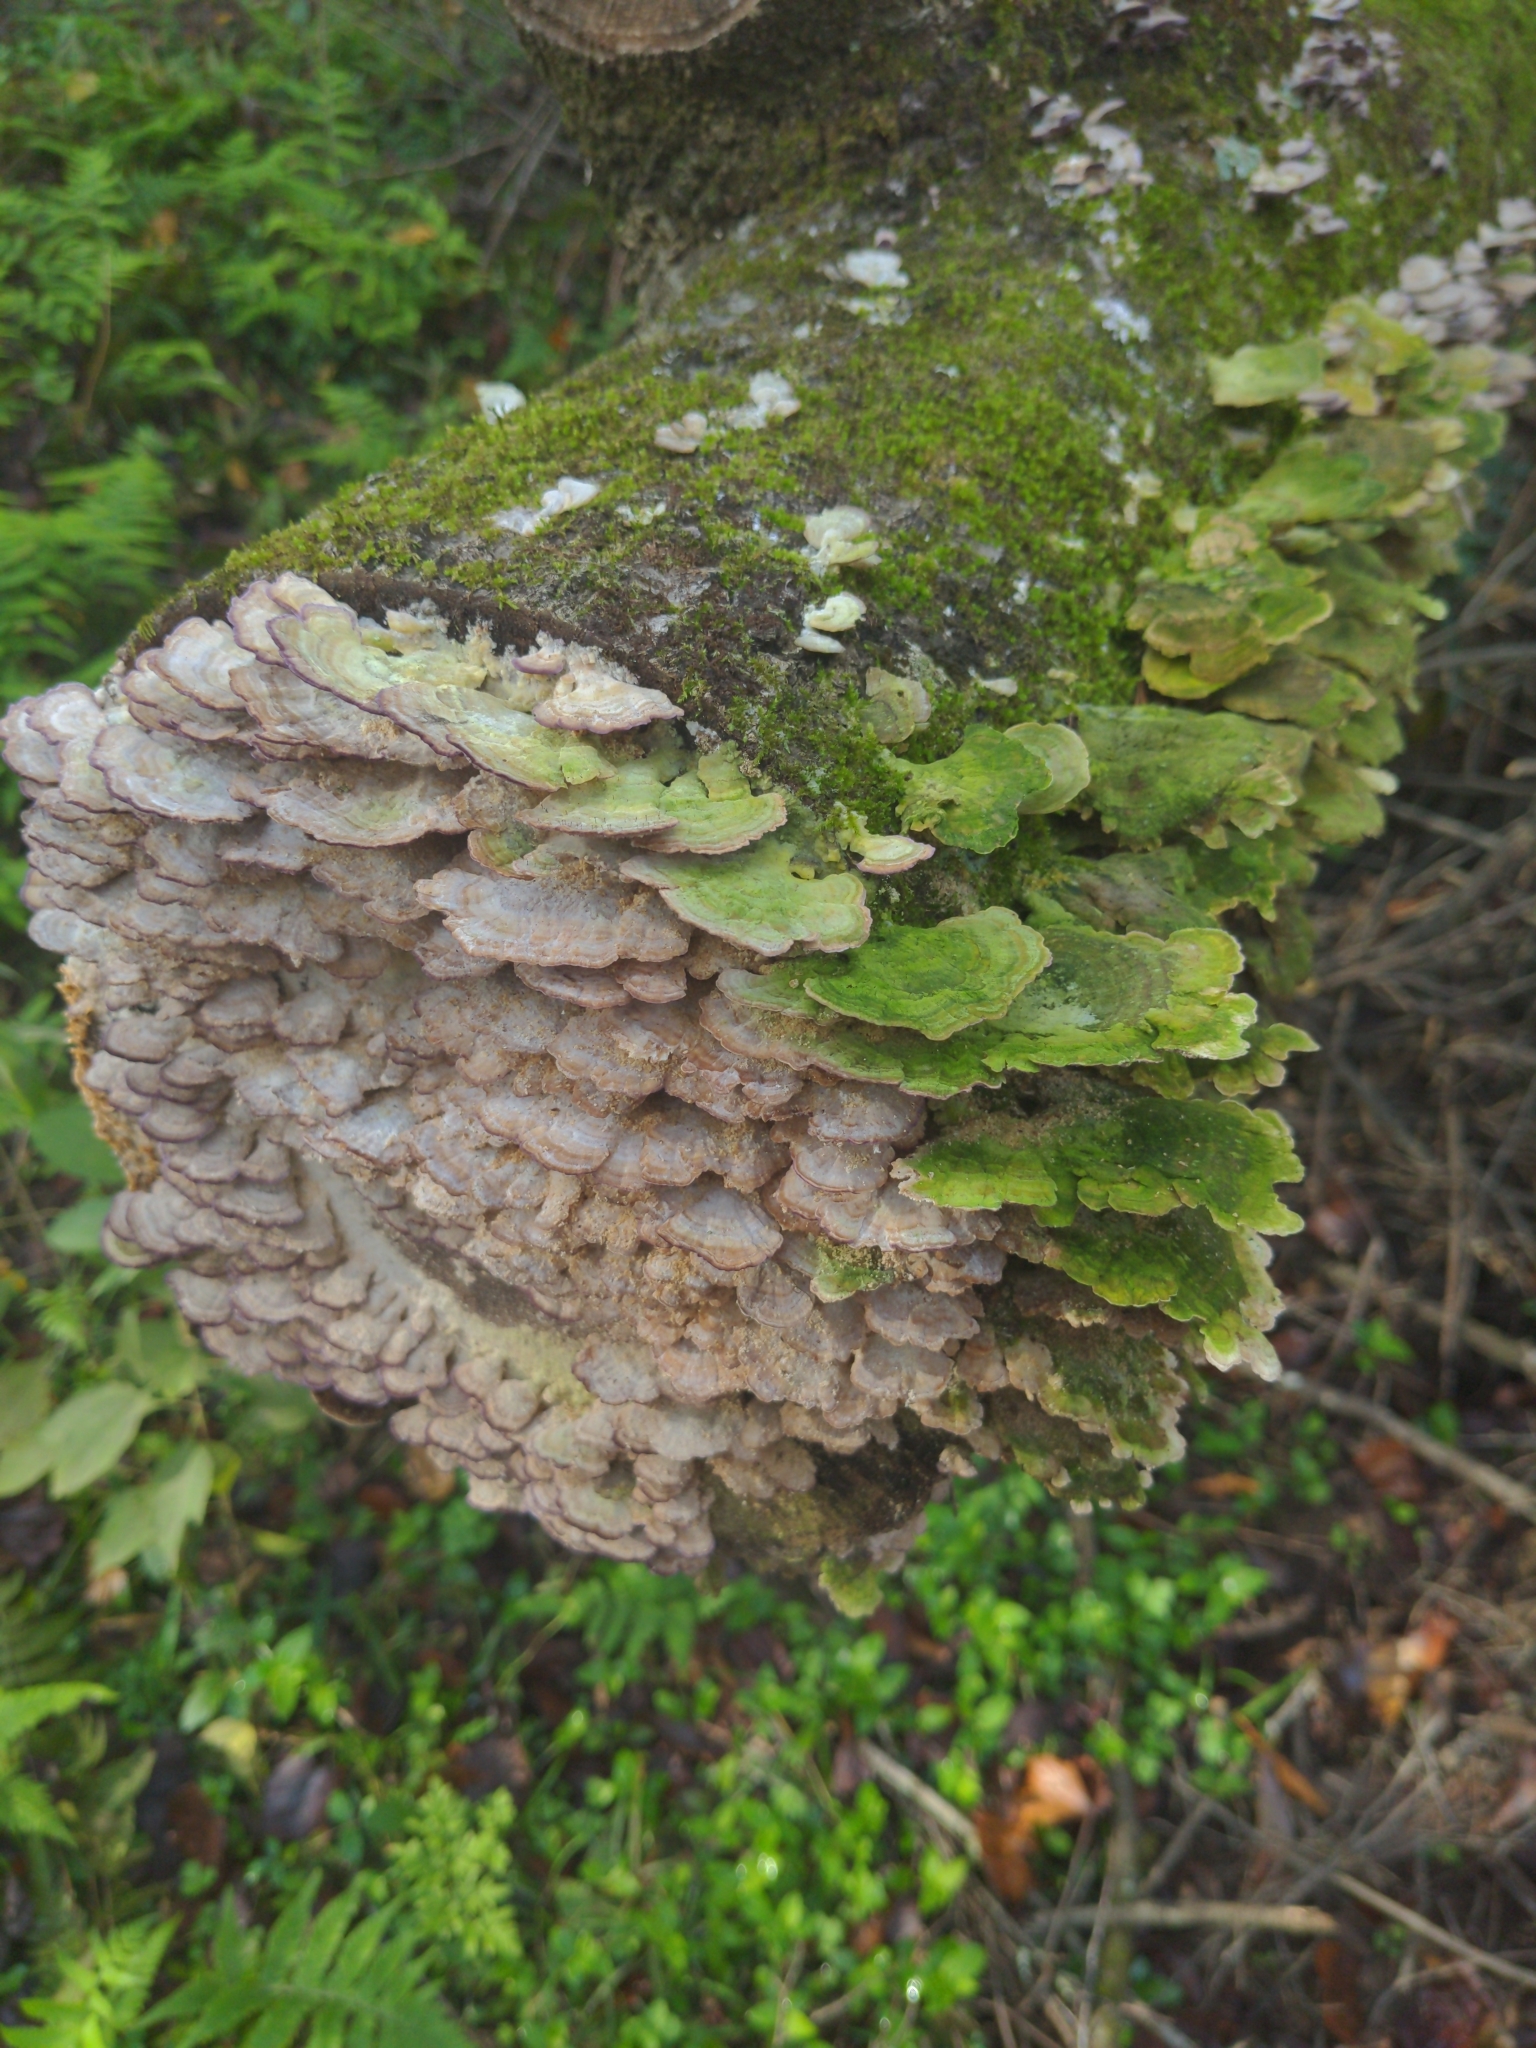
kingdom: Fungi
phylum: Basidiomycota
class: Agaricomycetes
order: Hymenochaetales
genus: Trichaptum
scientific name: Trichaptum biforme
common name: Violet-toothed polypore
